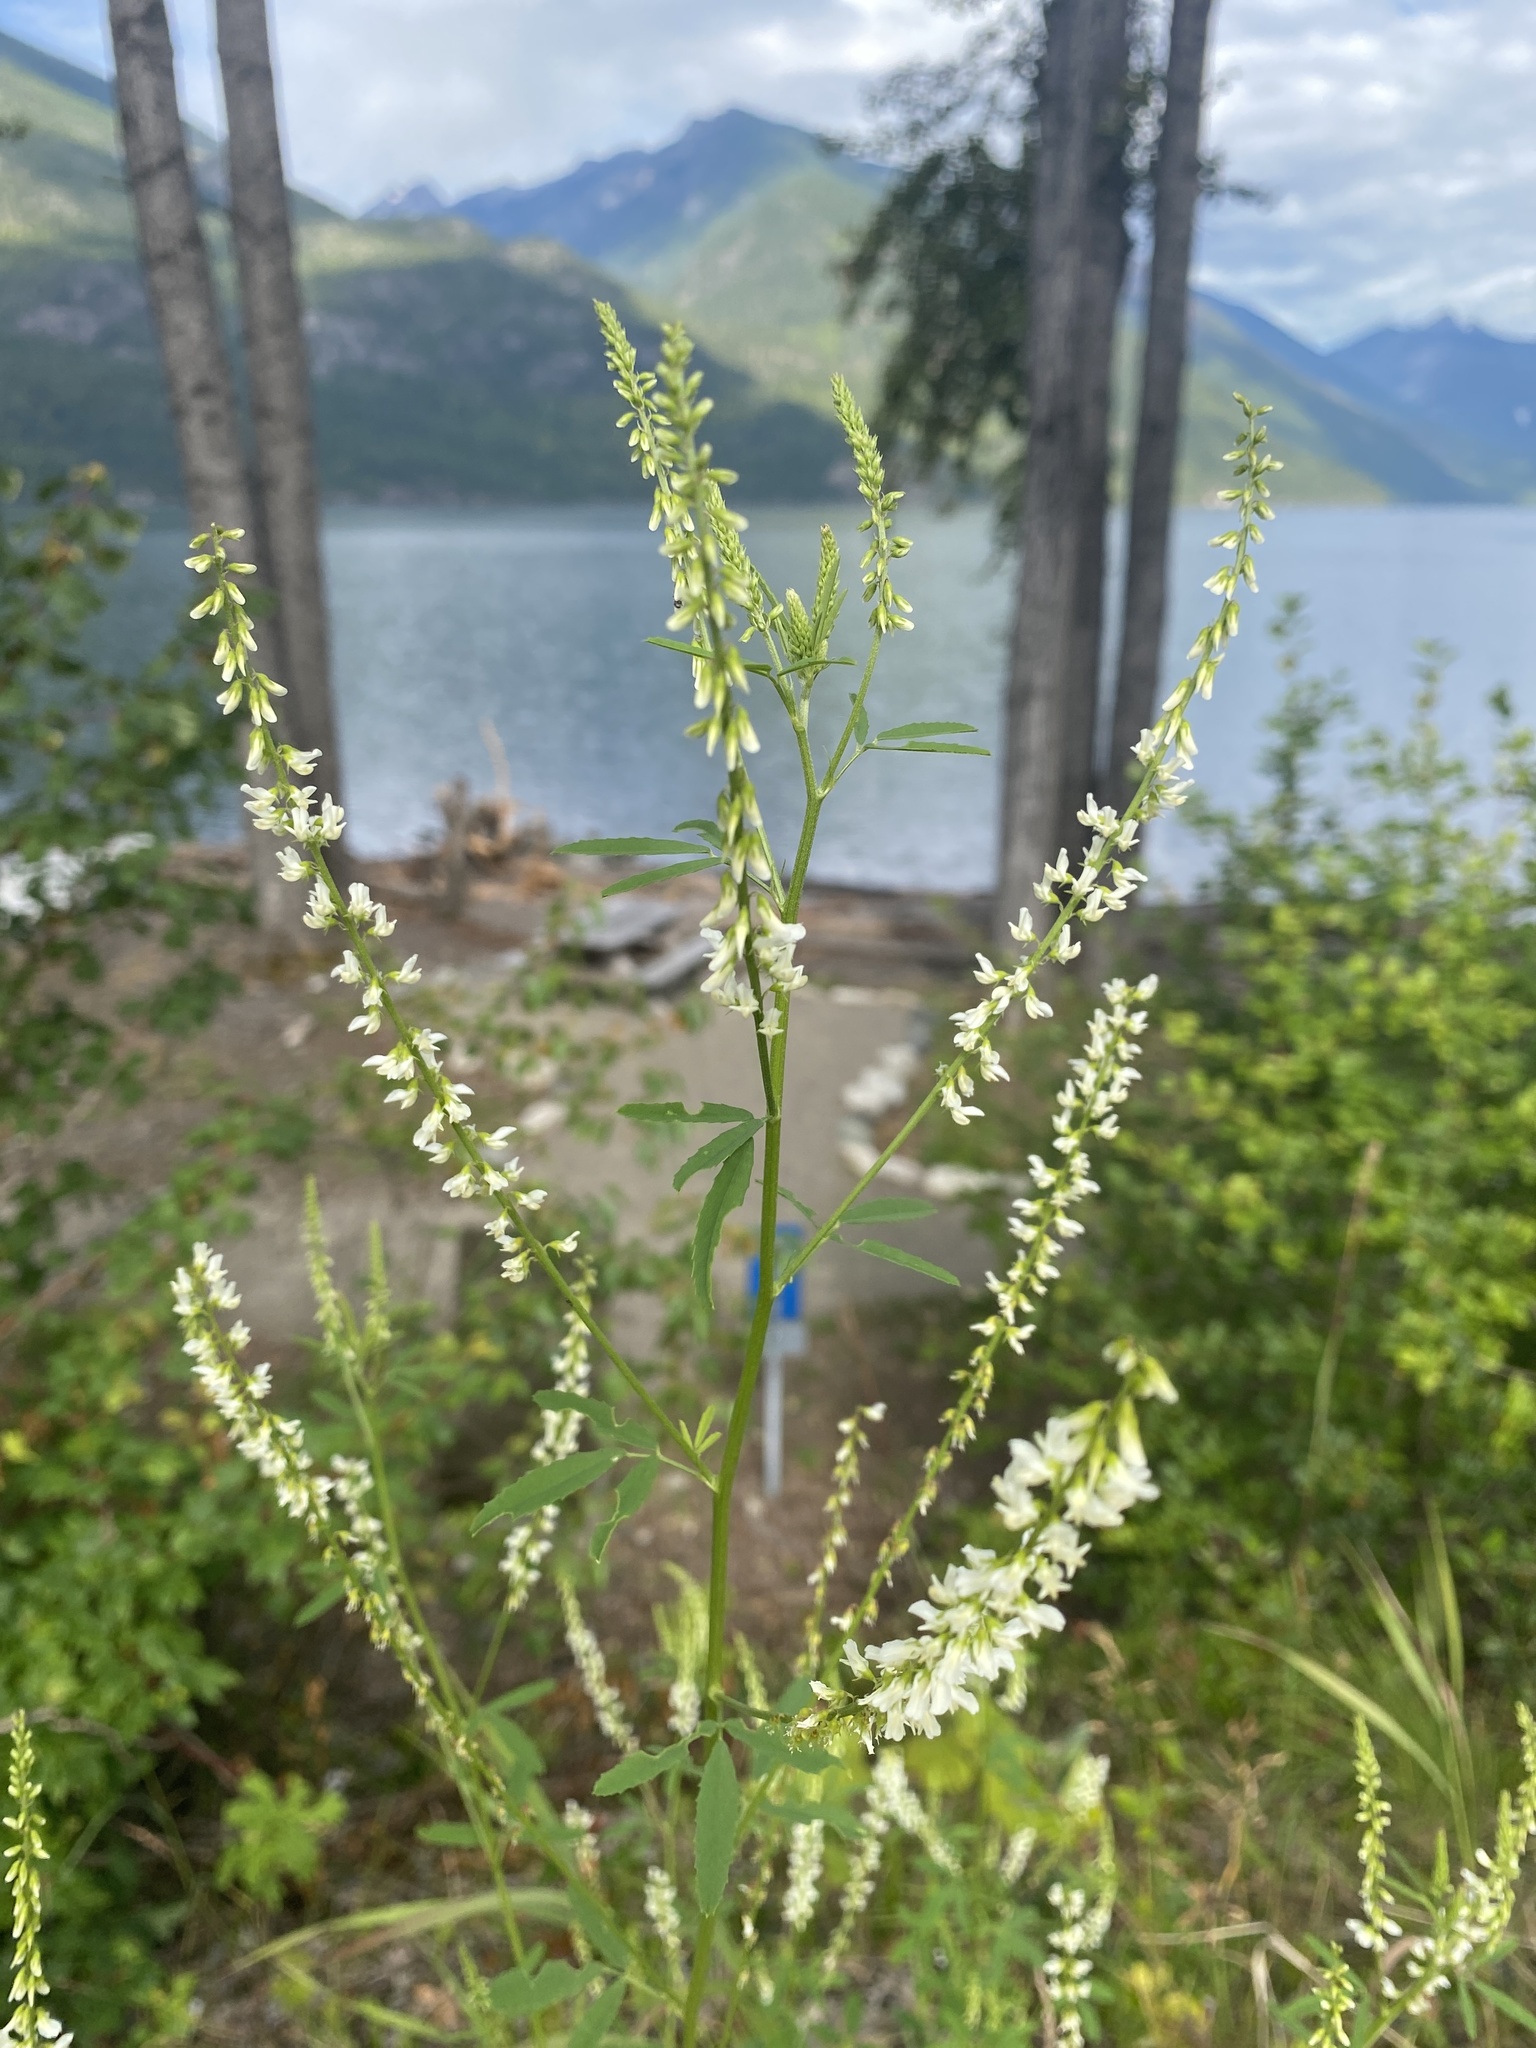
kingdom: Plantae
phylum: Tracheophyta
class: Magnoliopsida
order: Fabales
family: Fabaceae
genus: Melilotus
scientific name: Melilotus albus
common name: White melilot
